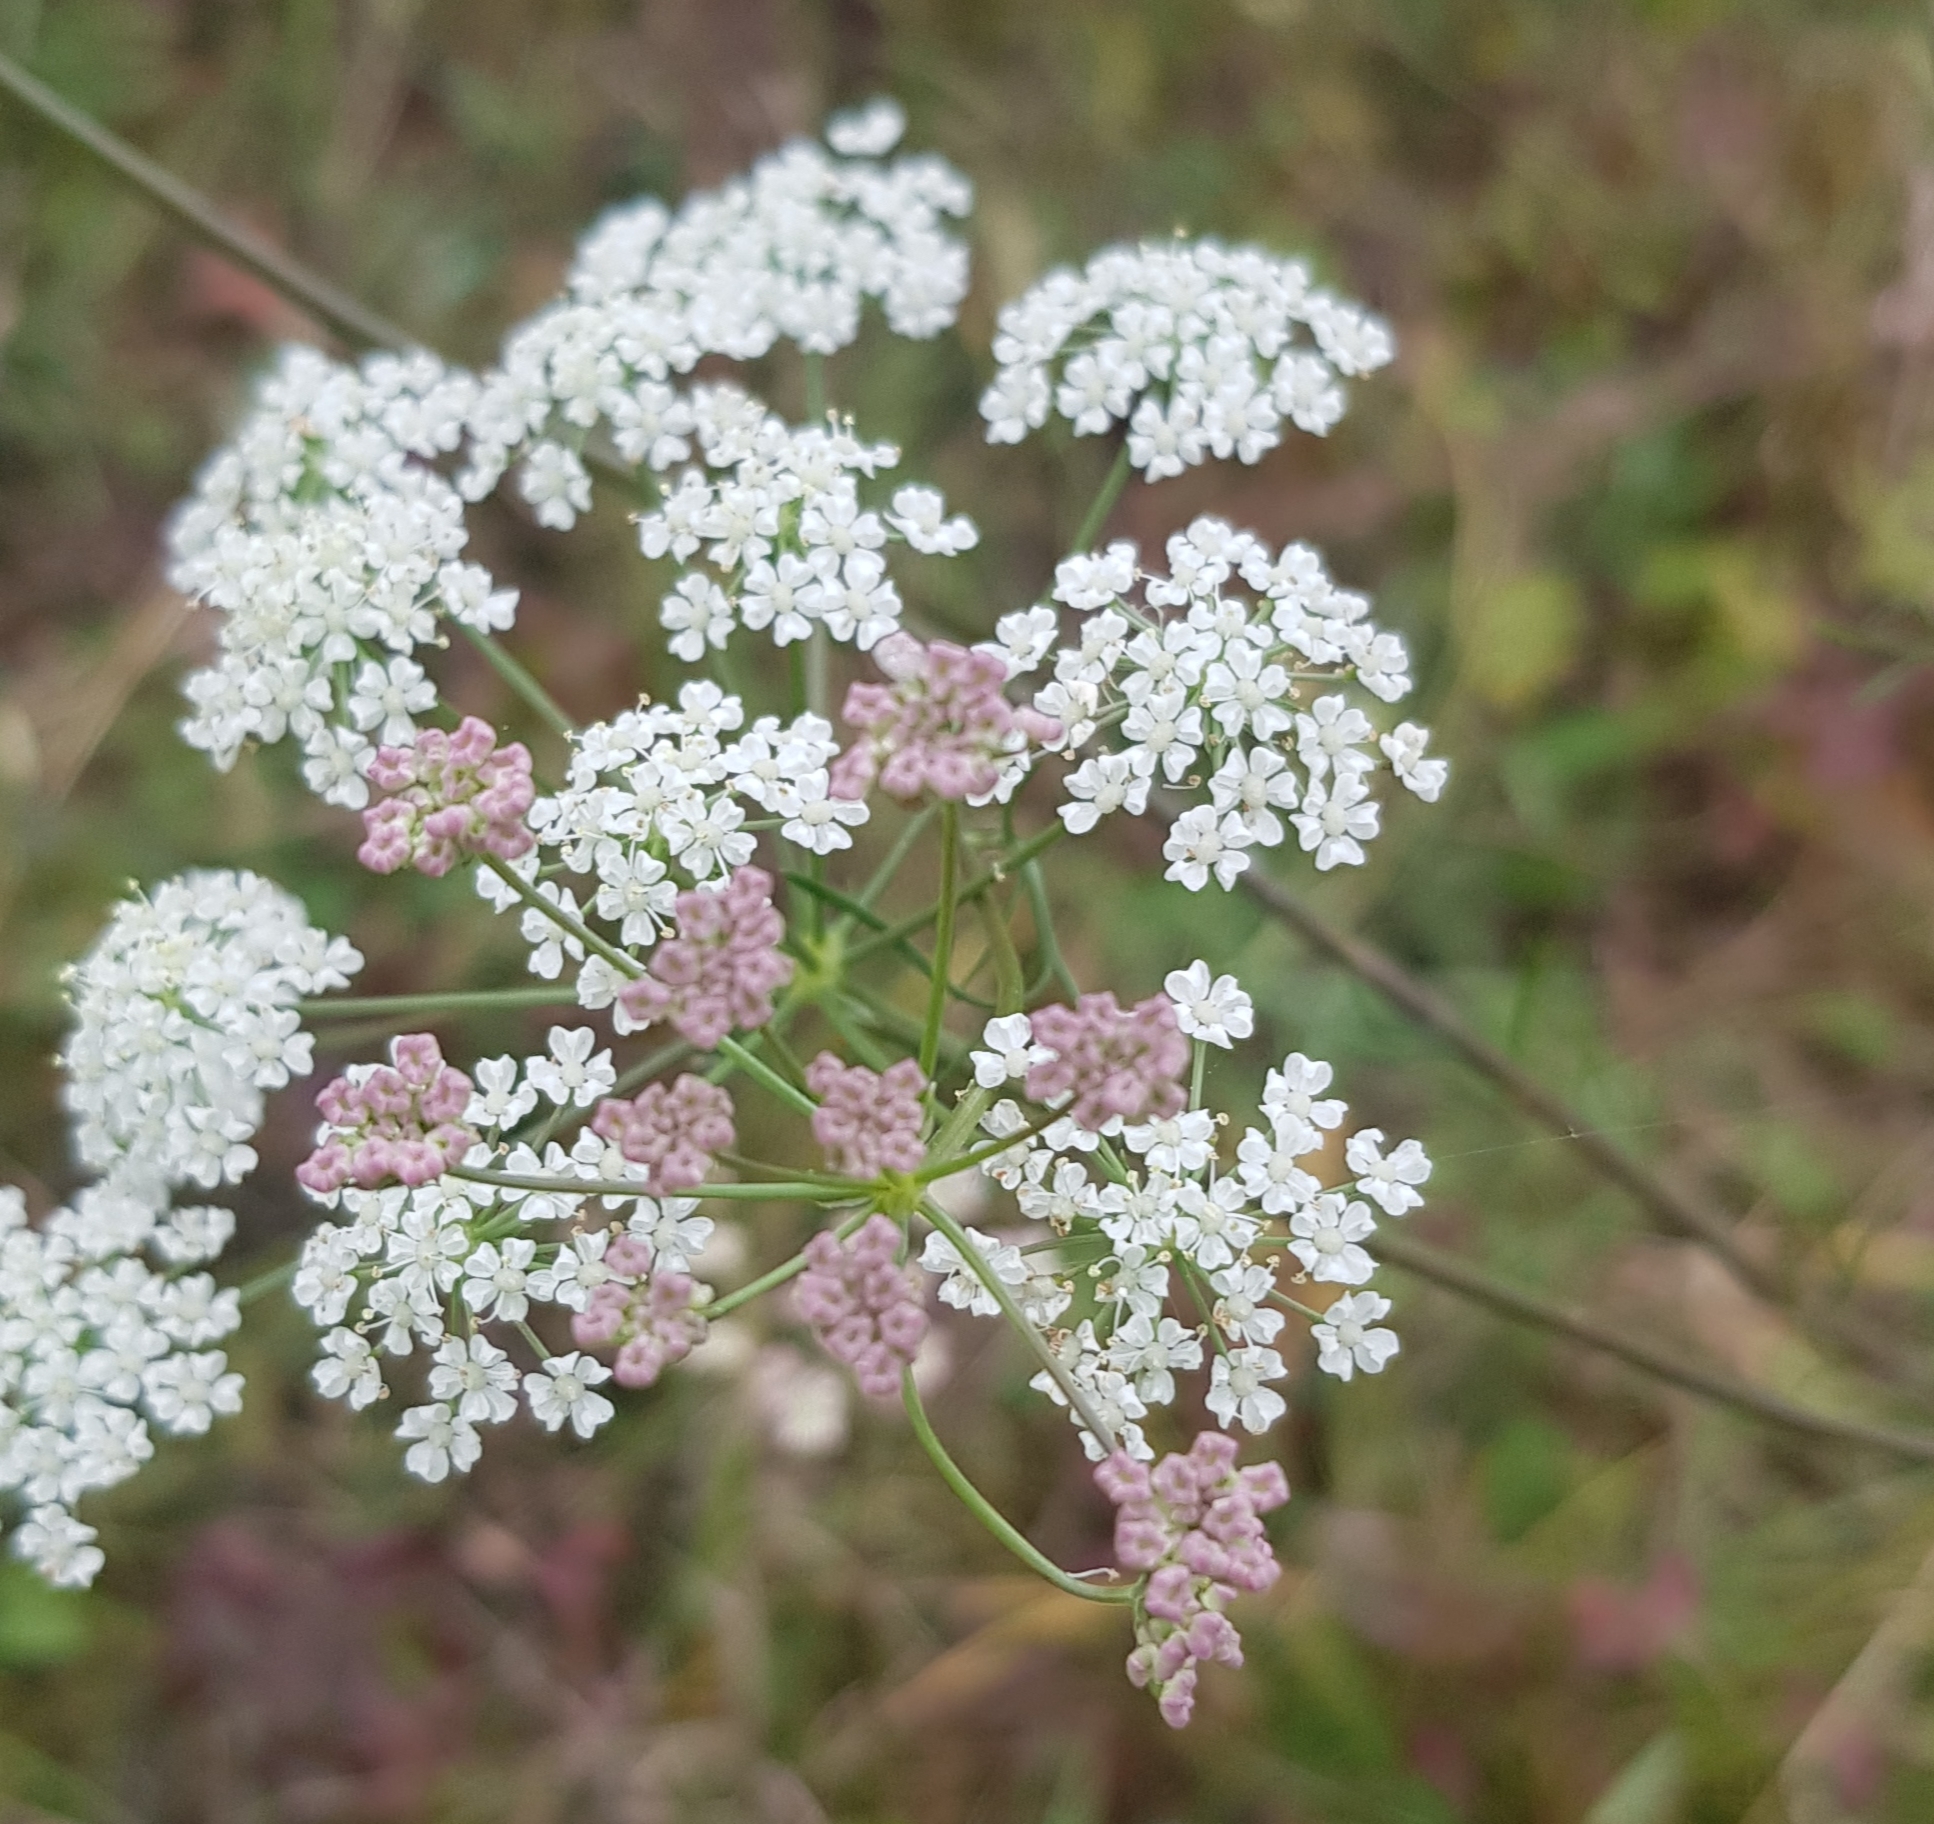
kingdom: Plantae
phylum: Tracheophyta
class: Magnoliopsida
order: Apiales
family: Apiaceae
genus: Carum
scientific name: Carum buriaticum
